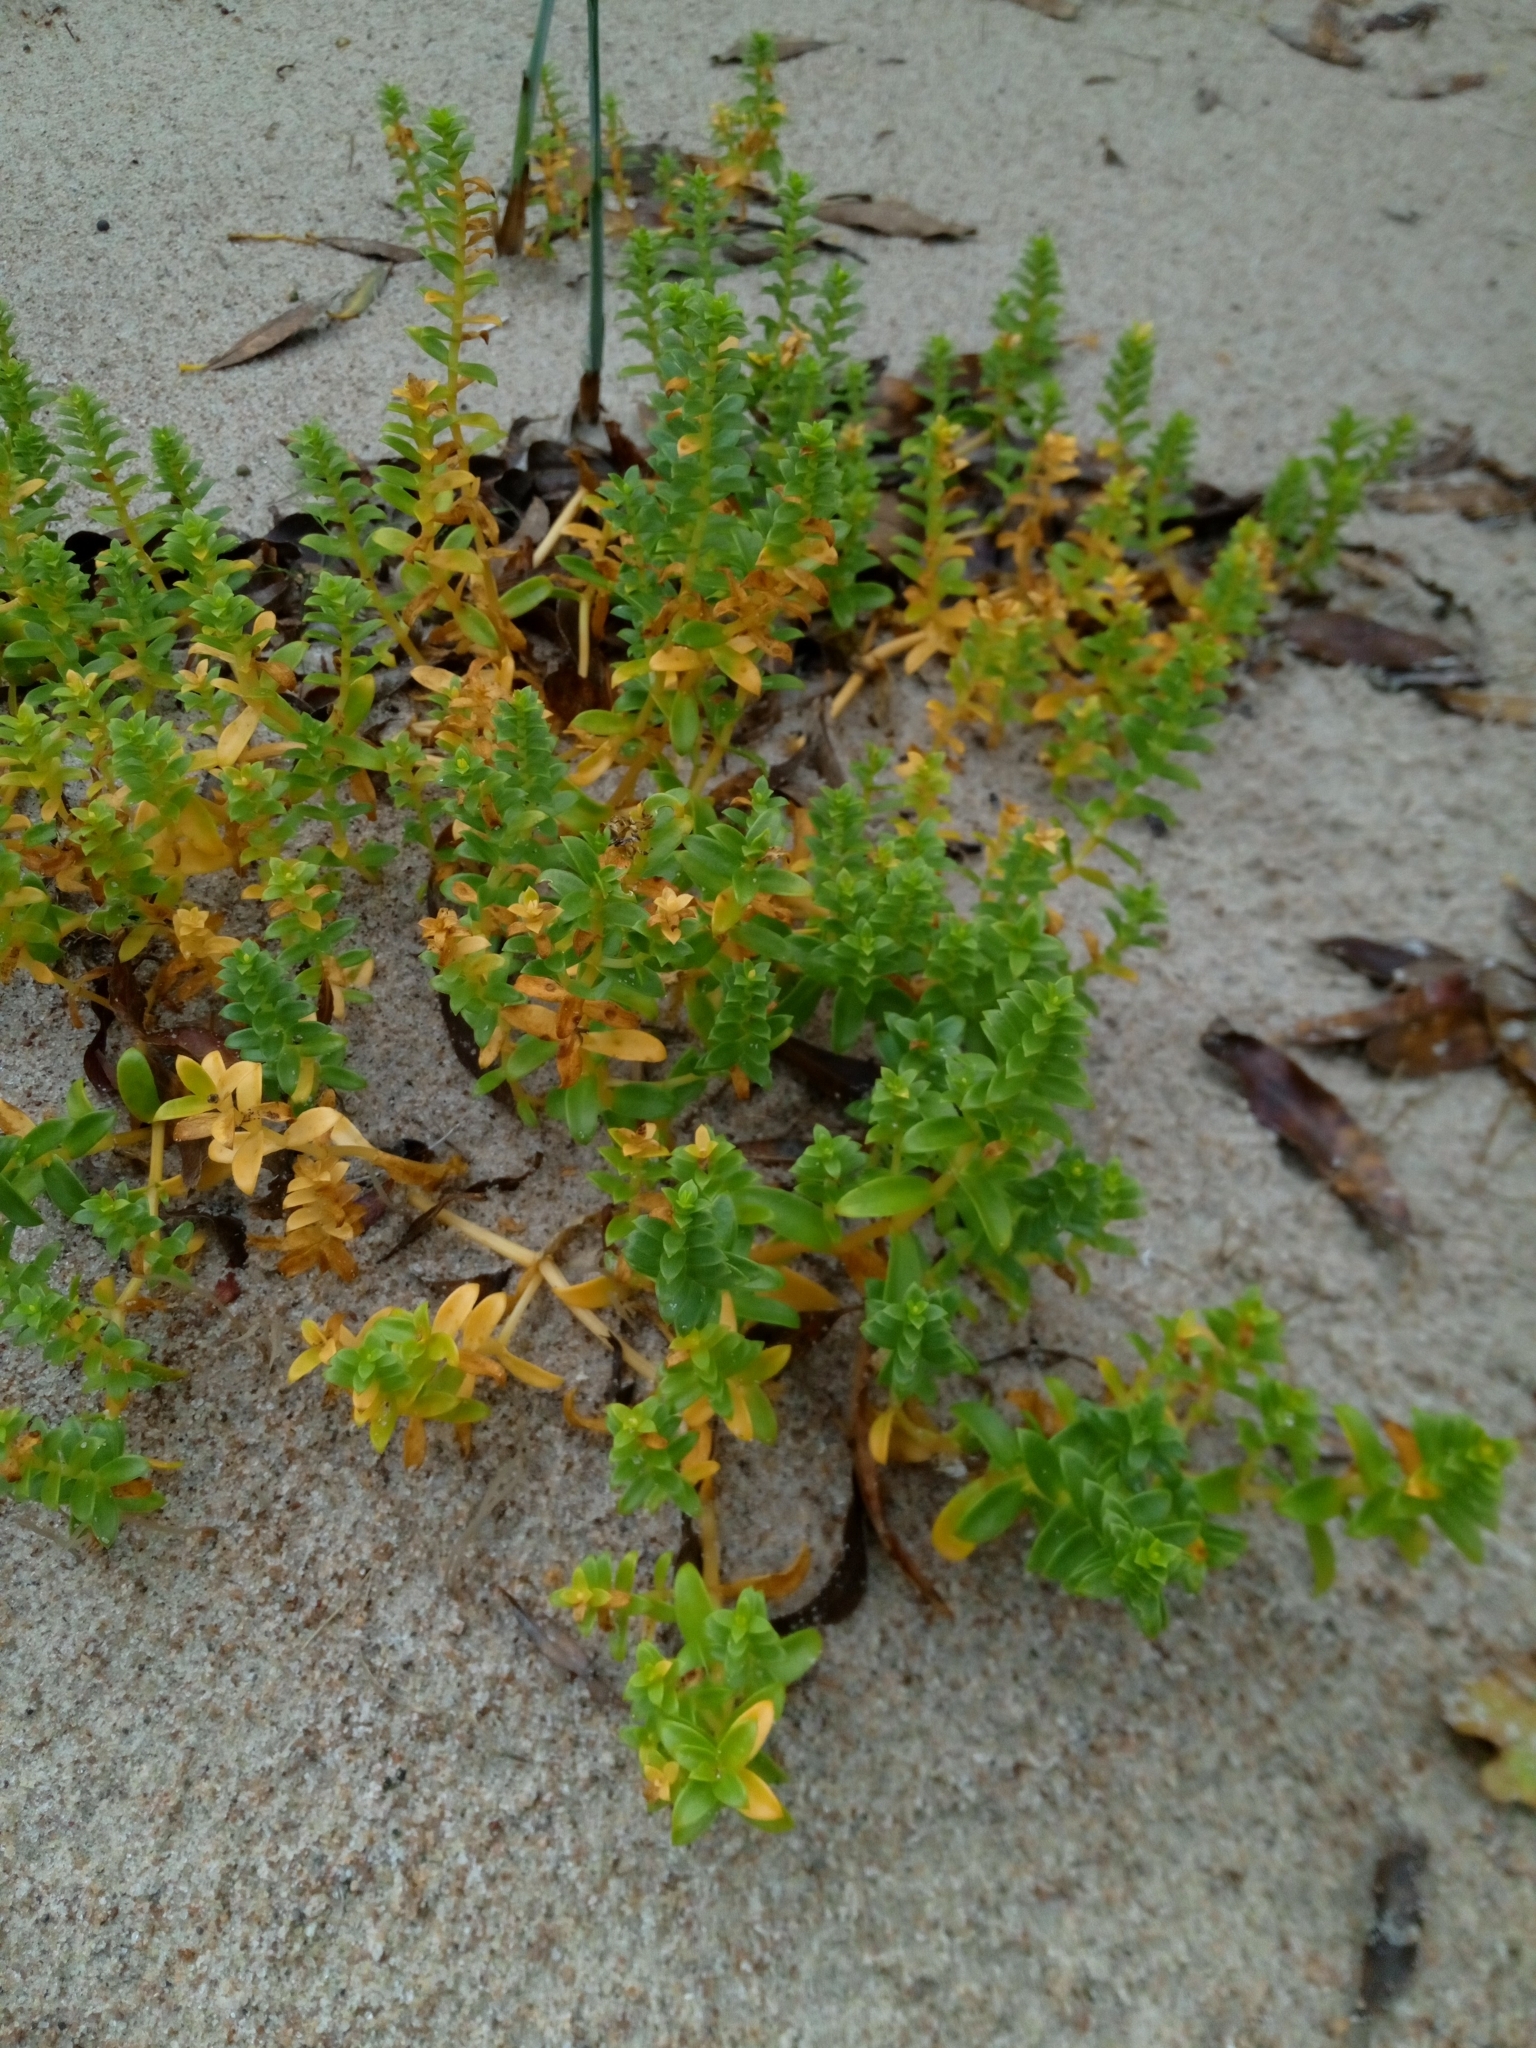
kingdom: Plantae
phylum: Tracheophyta
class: Magnoliopsida
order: Caryophyllales
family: Caryophyllaceae
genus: Honckenya
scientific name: Honckenya peploides
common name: Sea sandwort
